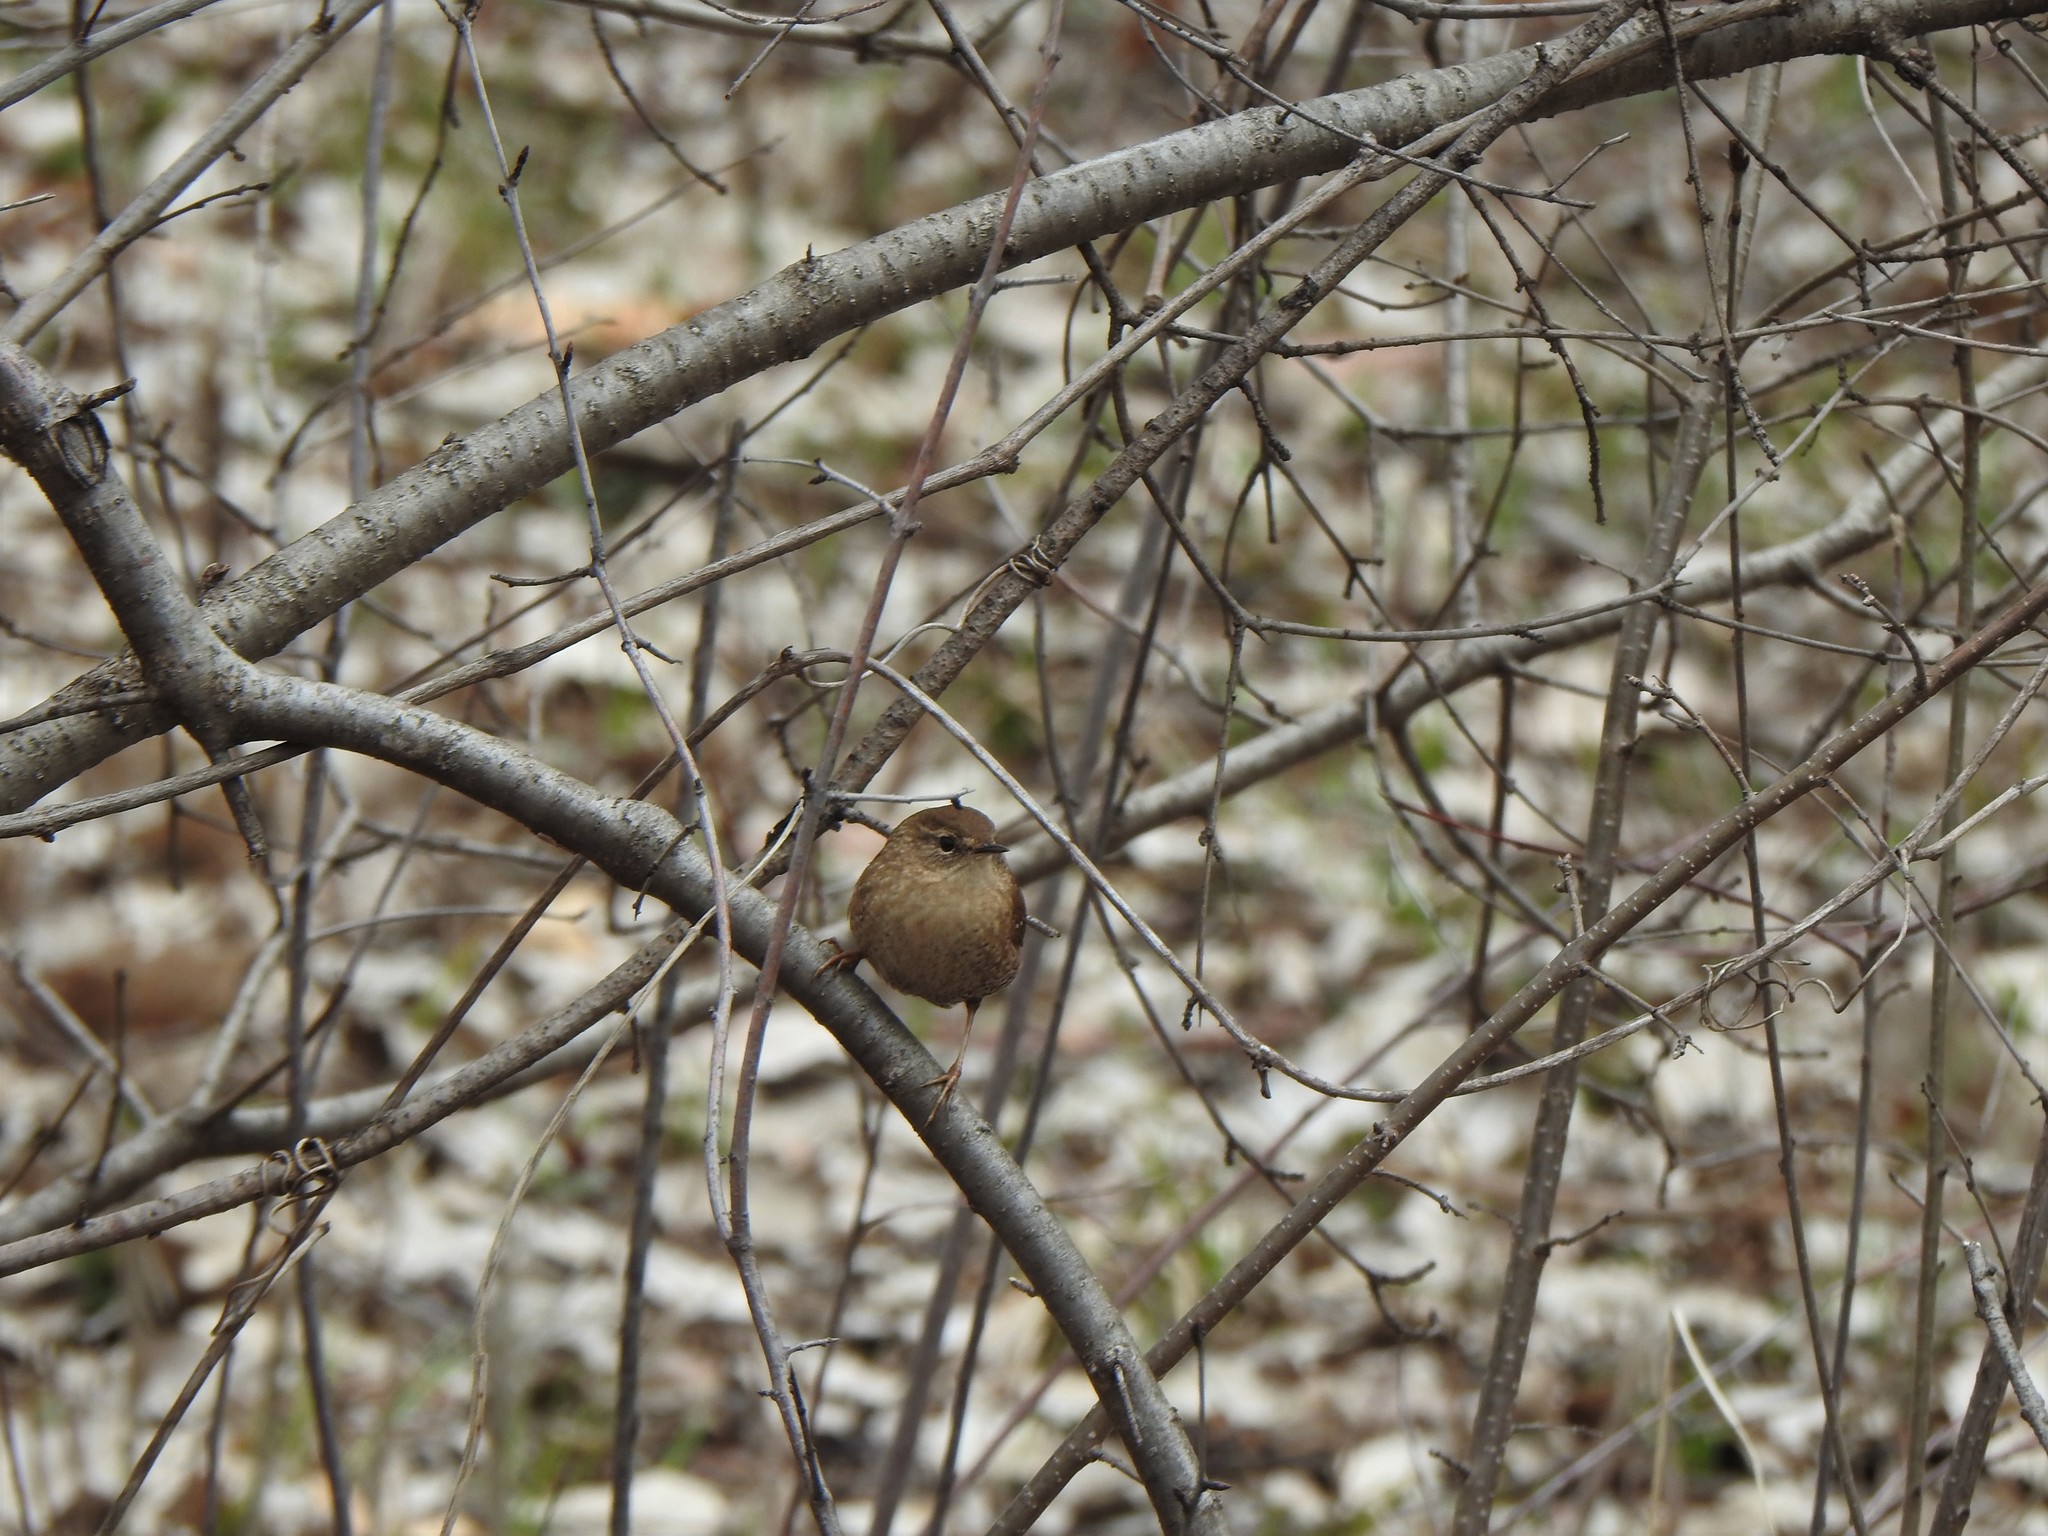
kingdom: Animalia
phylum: Chordata
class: Aves
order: Passeriformes
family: Troglodytidae
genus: Troglodytes
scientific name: Troglodytes hiemalis
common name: Winter wren
